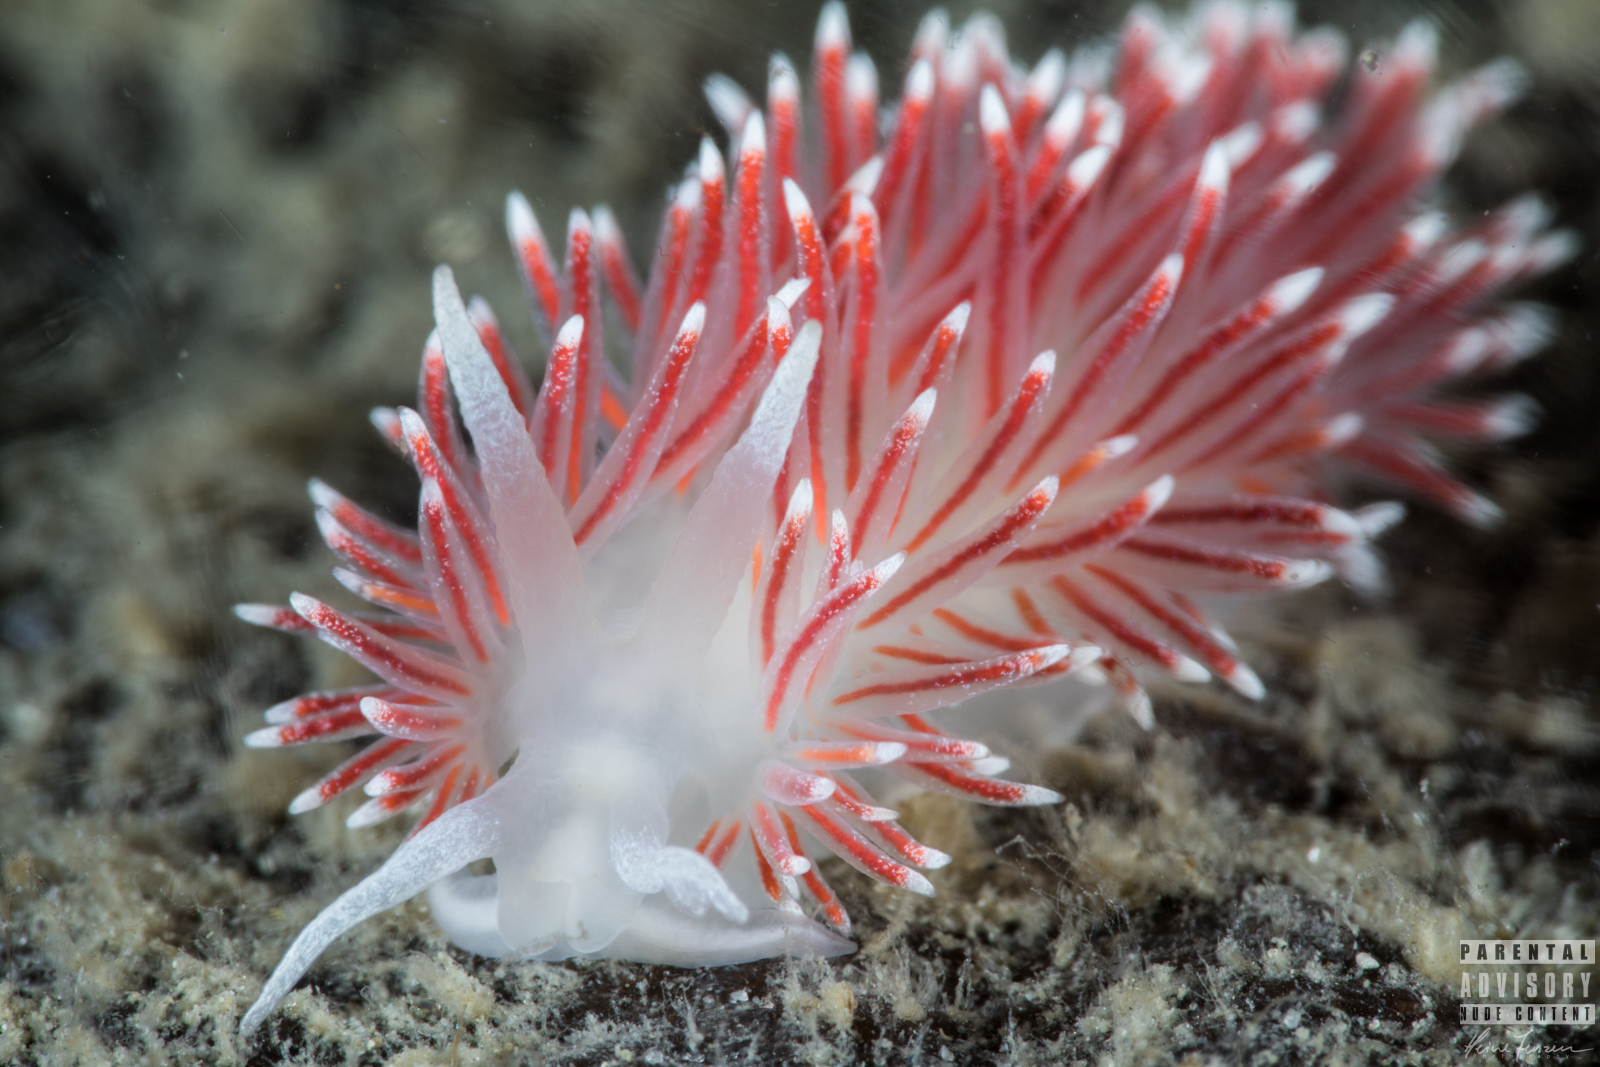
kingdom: Animalia
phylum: Mollusca
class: Gastropoda
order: Nudibranchia
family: Flabellinidae
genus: Carronella
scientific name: Carronella pellucida
